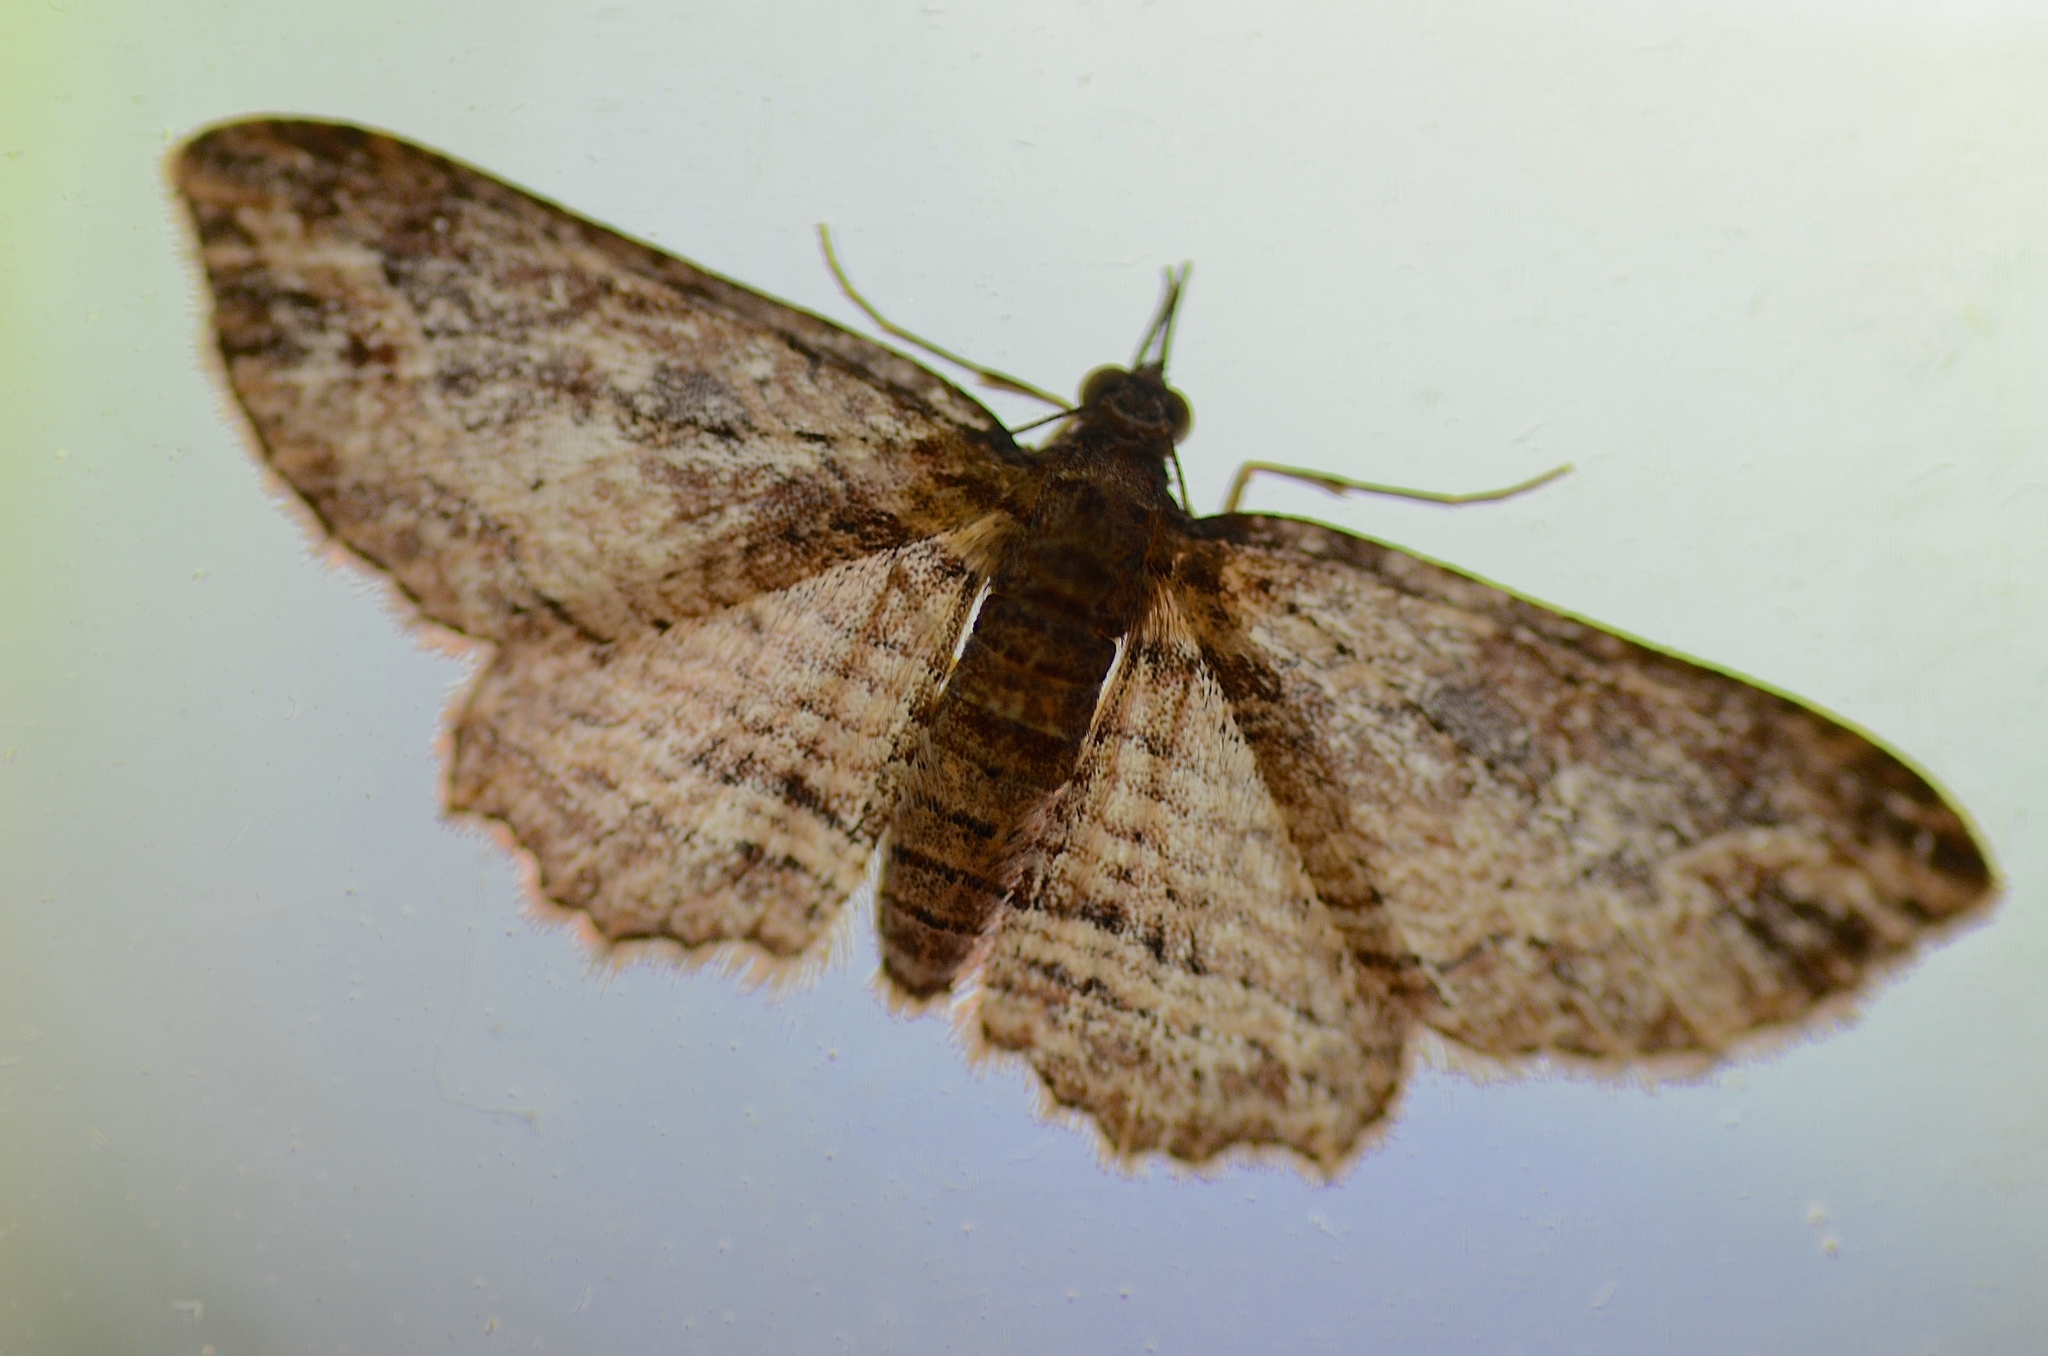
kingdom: Animalia
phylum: Arthropoda
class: Insecta
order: Lepidoptera
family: Geometridae
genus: Chloroclystis
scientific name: Chloroclystis filata
